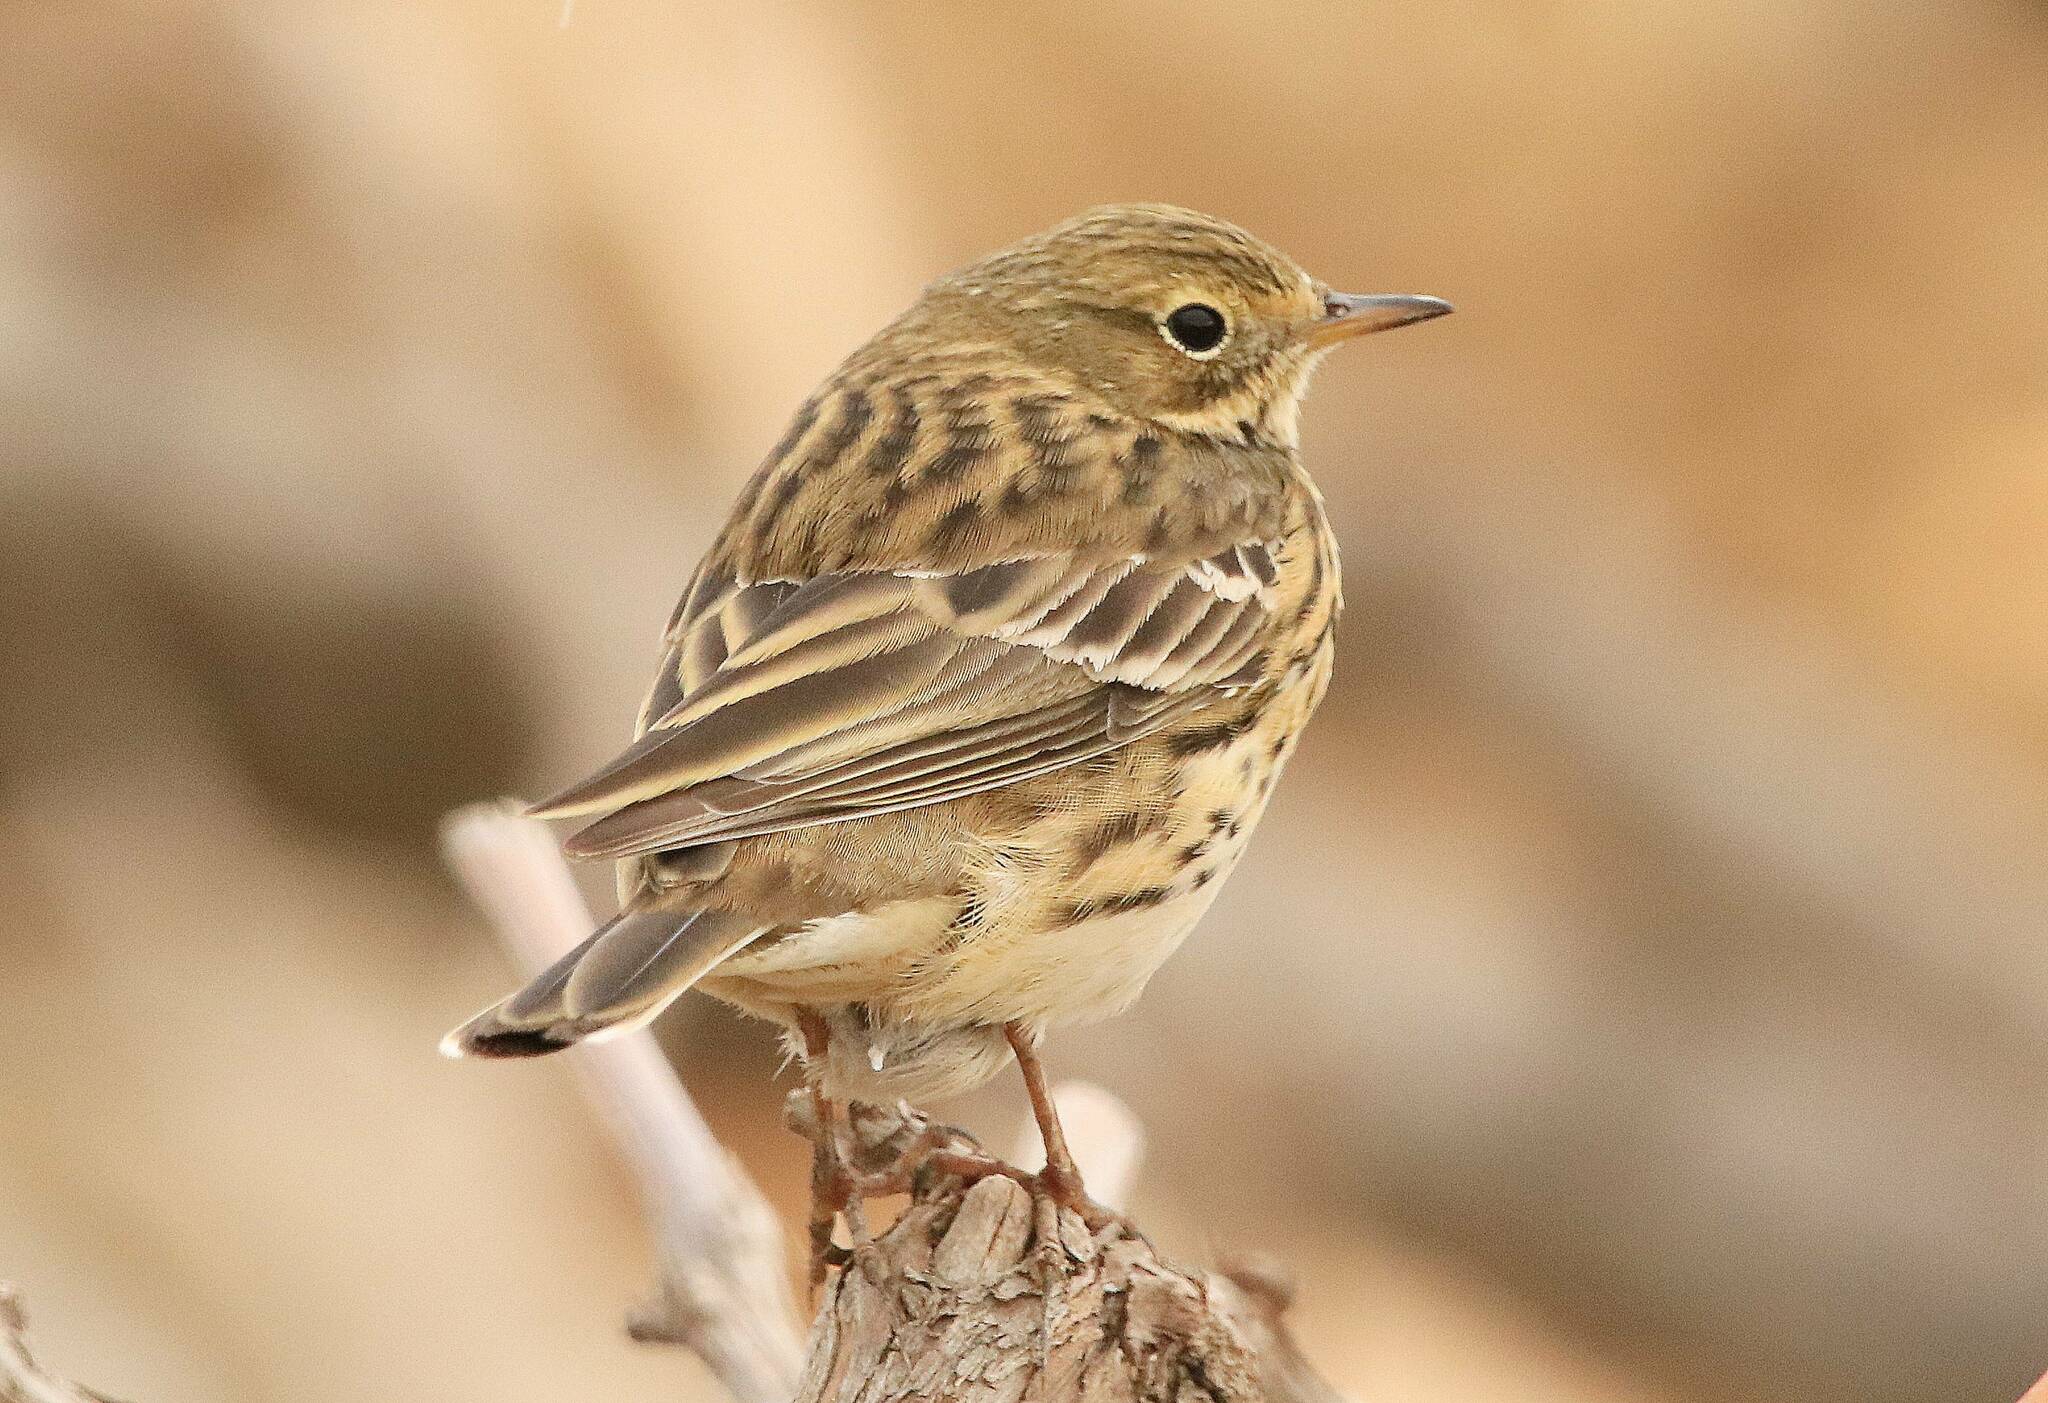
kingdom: Animalia
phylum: Chordata
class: Aves
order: Passeriformes
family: Motacillidae
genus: Anthus
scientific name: Anthus pratensis
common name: Meadow pipit
